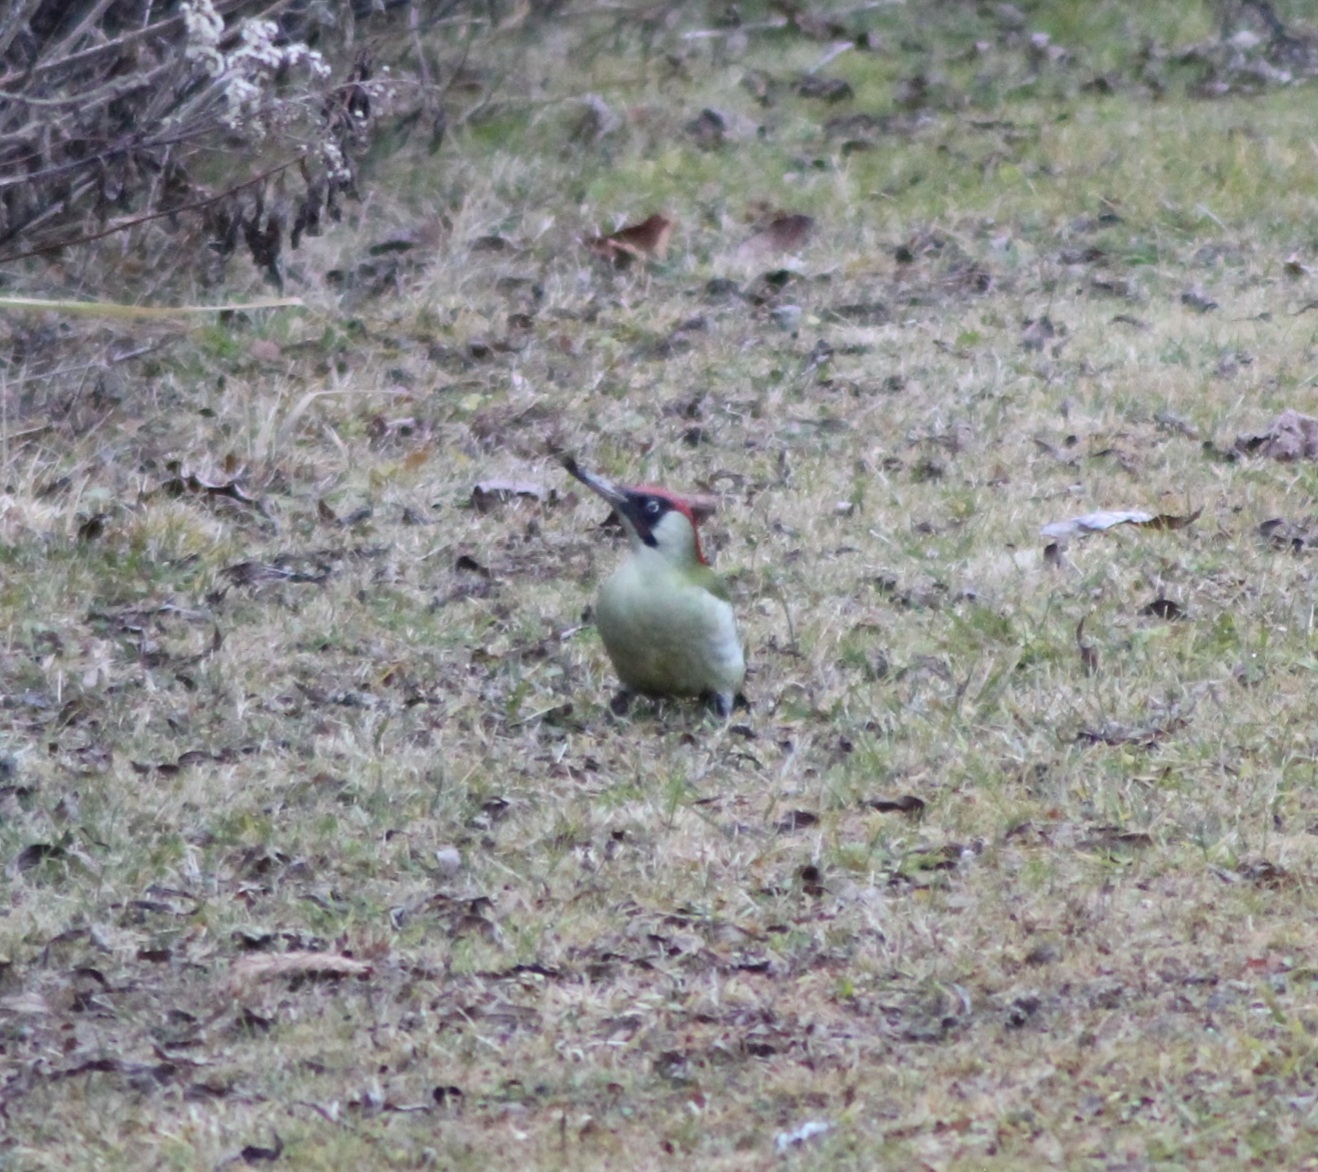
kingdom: Animalia
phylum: Chordata
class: Aves
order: Piciformes
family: Picidae
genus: Picus
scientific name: Picus viridis
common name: European green woodpecker
